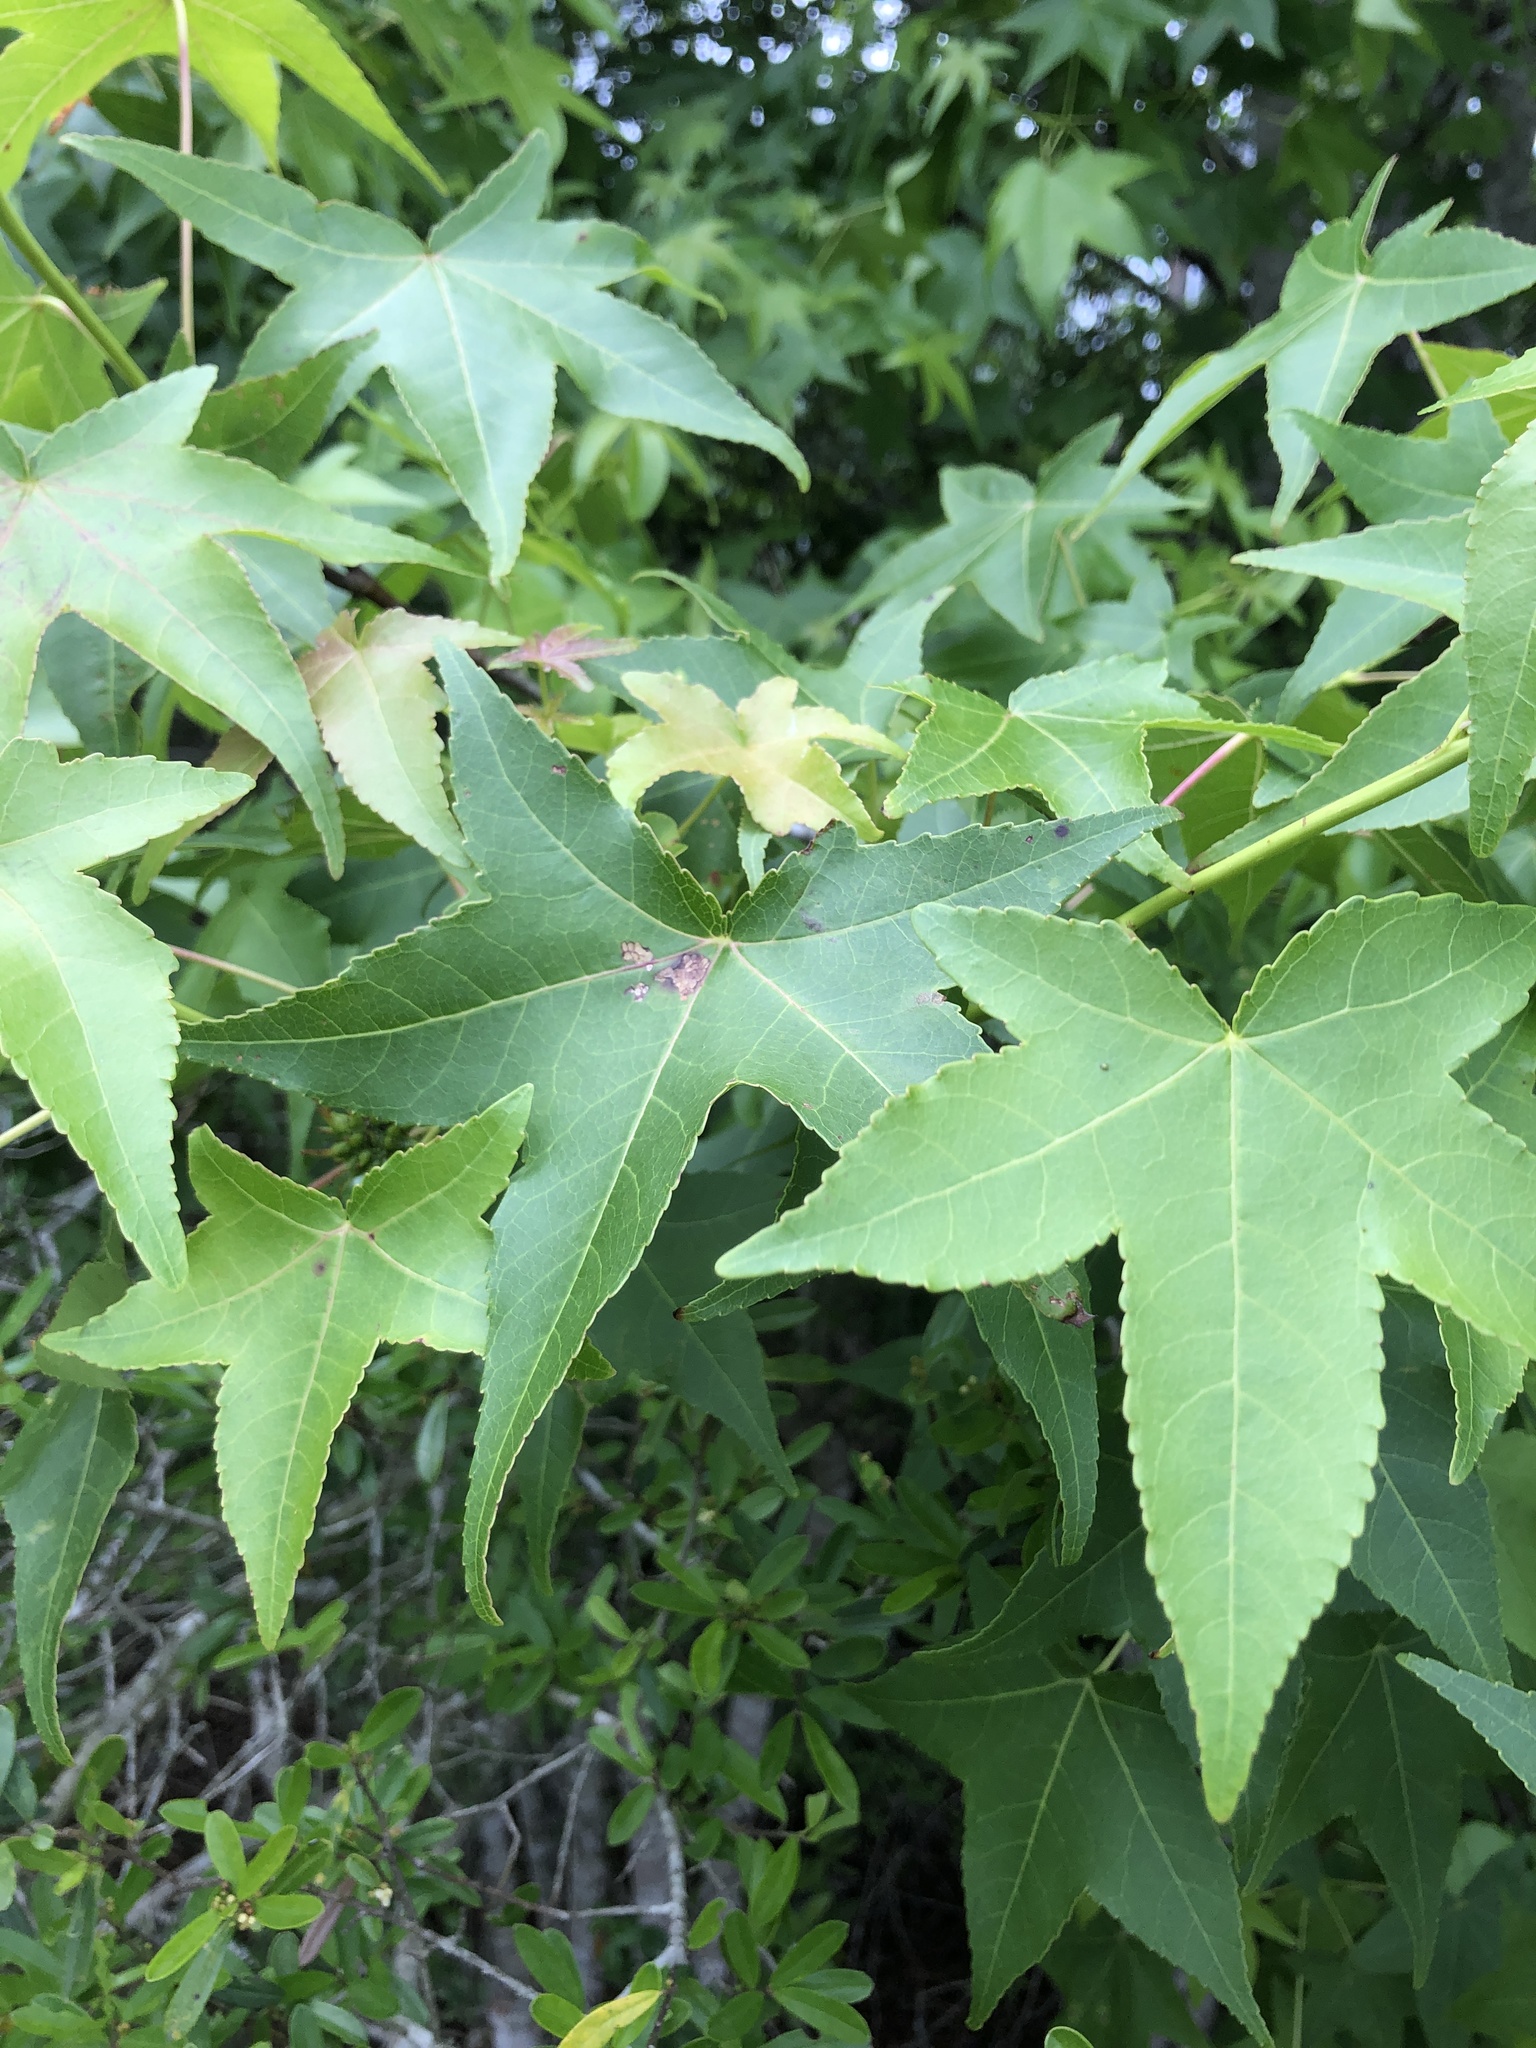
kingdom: Plantae
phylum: Tracheophyta
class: Magnoliopsida
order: Saxifragales
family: Altingiaceae
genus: Liquidambar
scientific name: Liquidambar styraciflua
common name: Sweet gum
